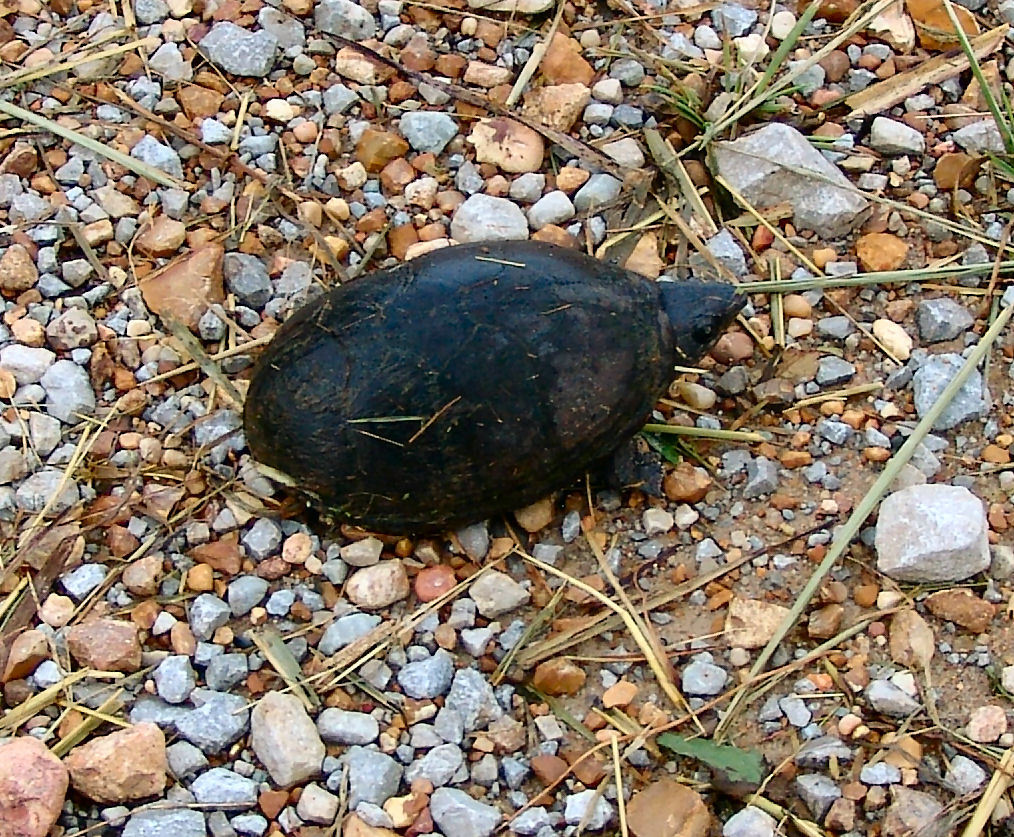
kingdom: Animalia
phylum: Chordata
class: Testudines
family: Kinosternidae
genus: Sternotherus
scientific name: Sternotherus odoratus
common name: Common musk turtle
